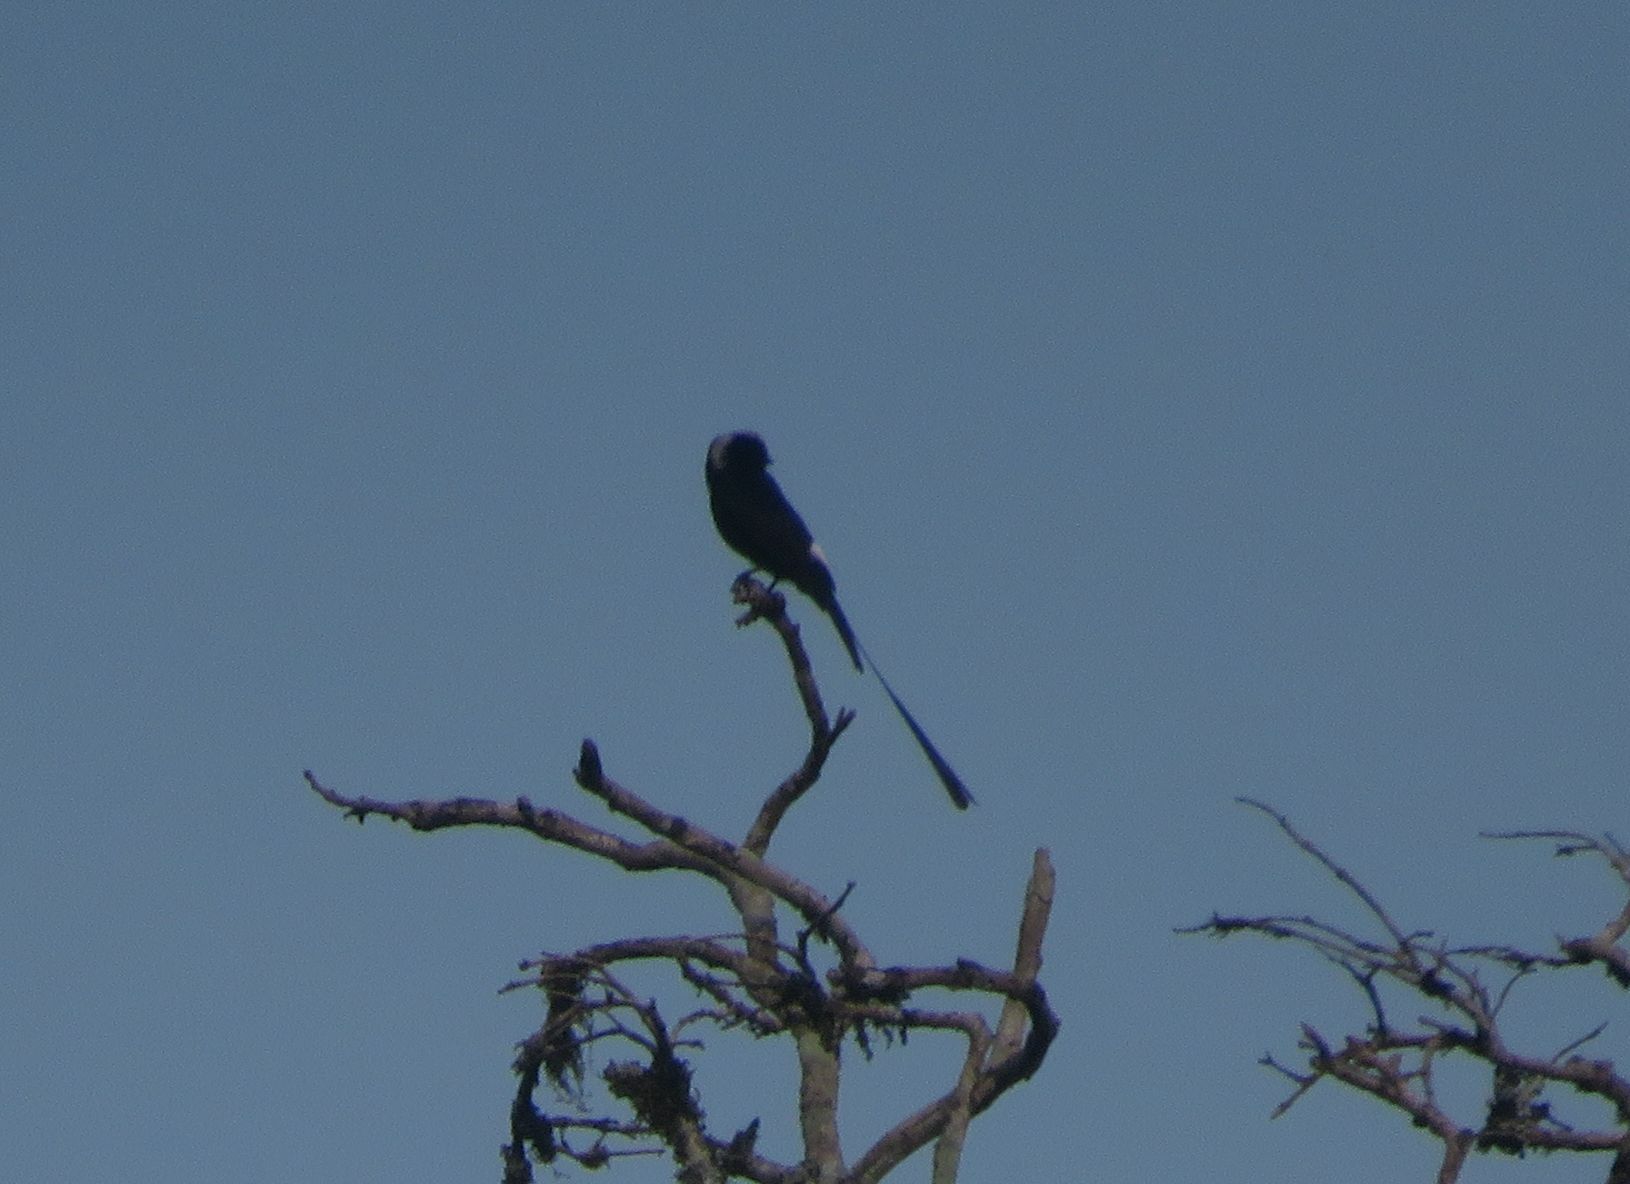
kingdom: Animalia
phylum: Chordata
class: Aves
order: Passeriformes
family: Tyrannidae
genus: Colonia
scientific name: Colonia colonus
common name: Long-tailed tyrant
